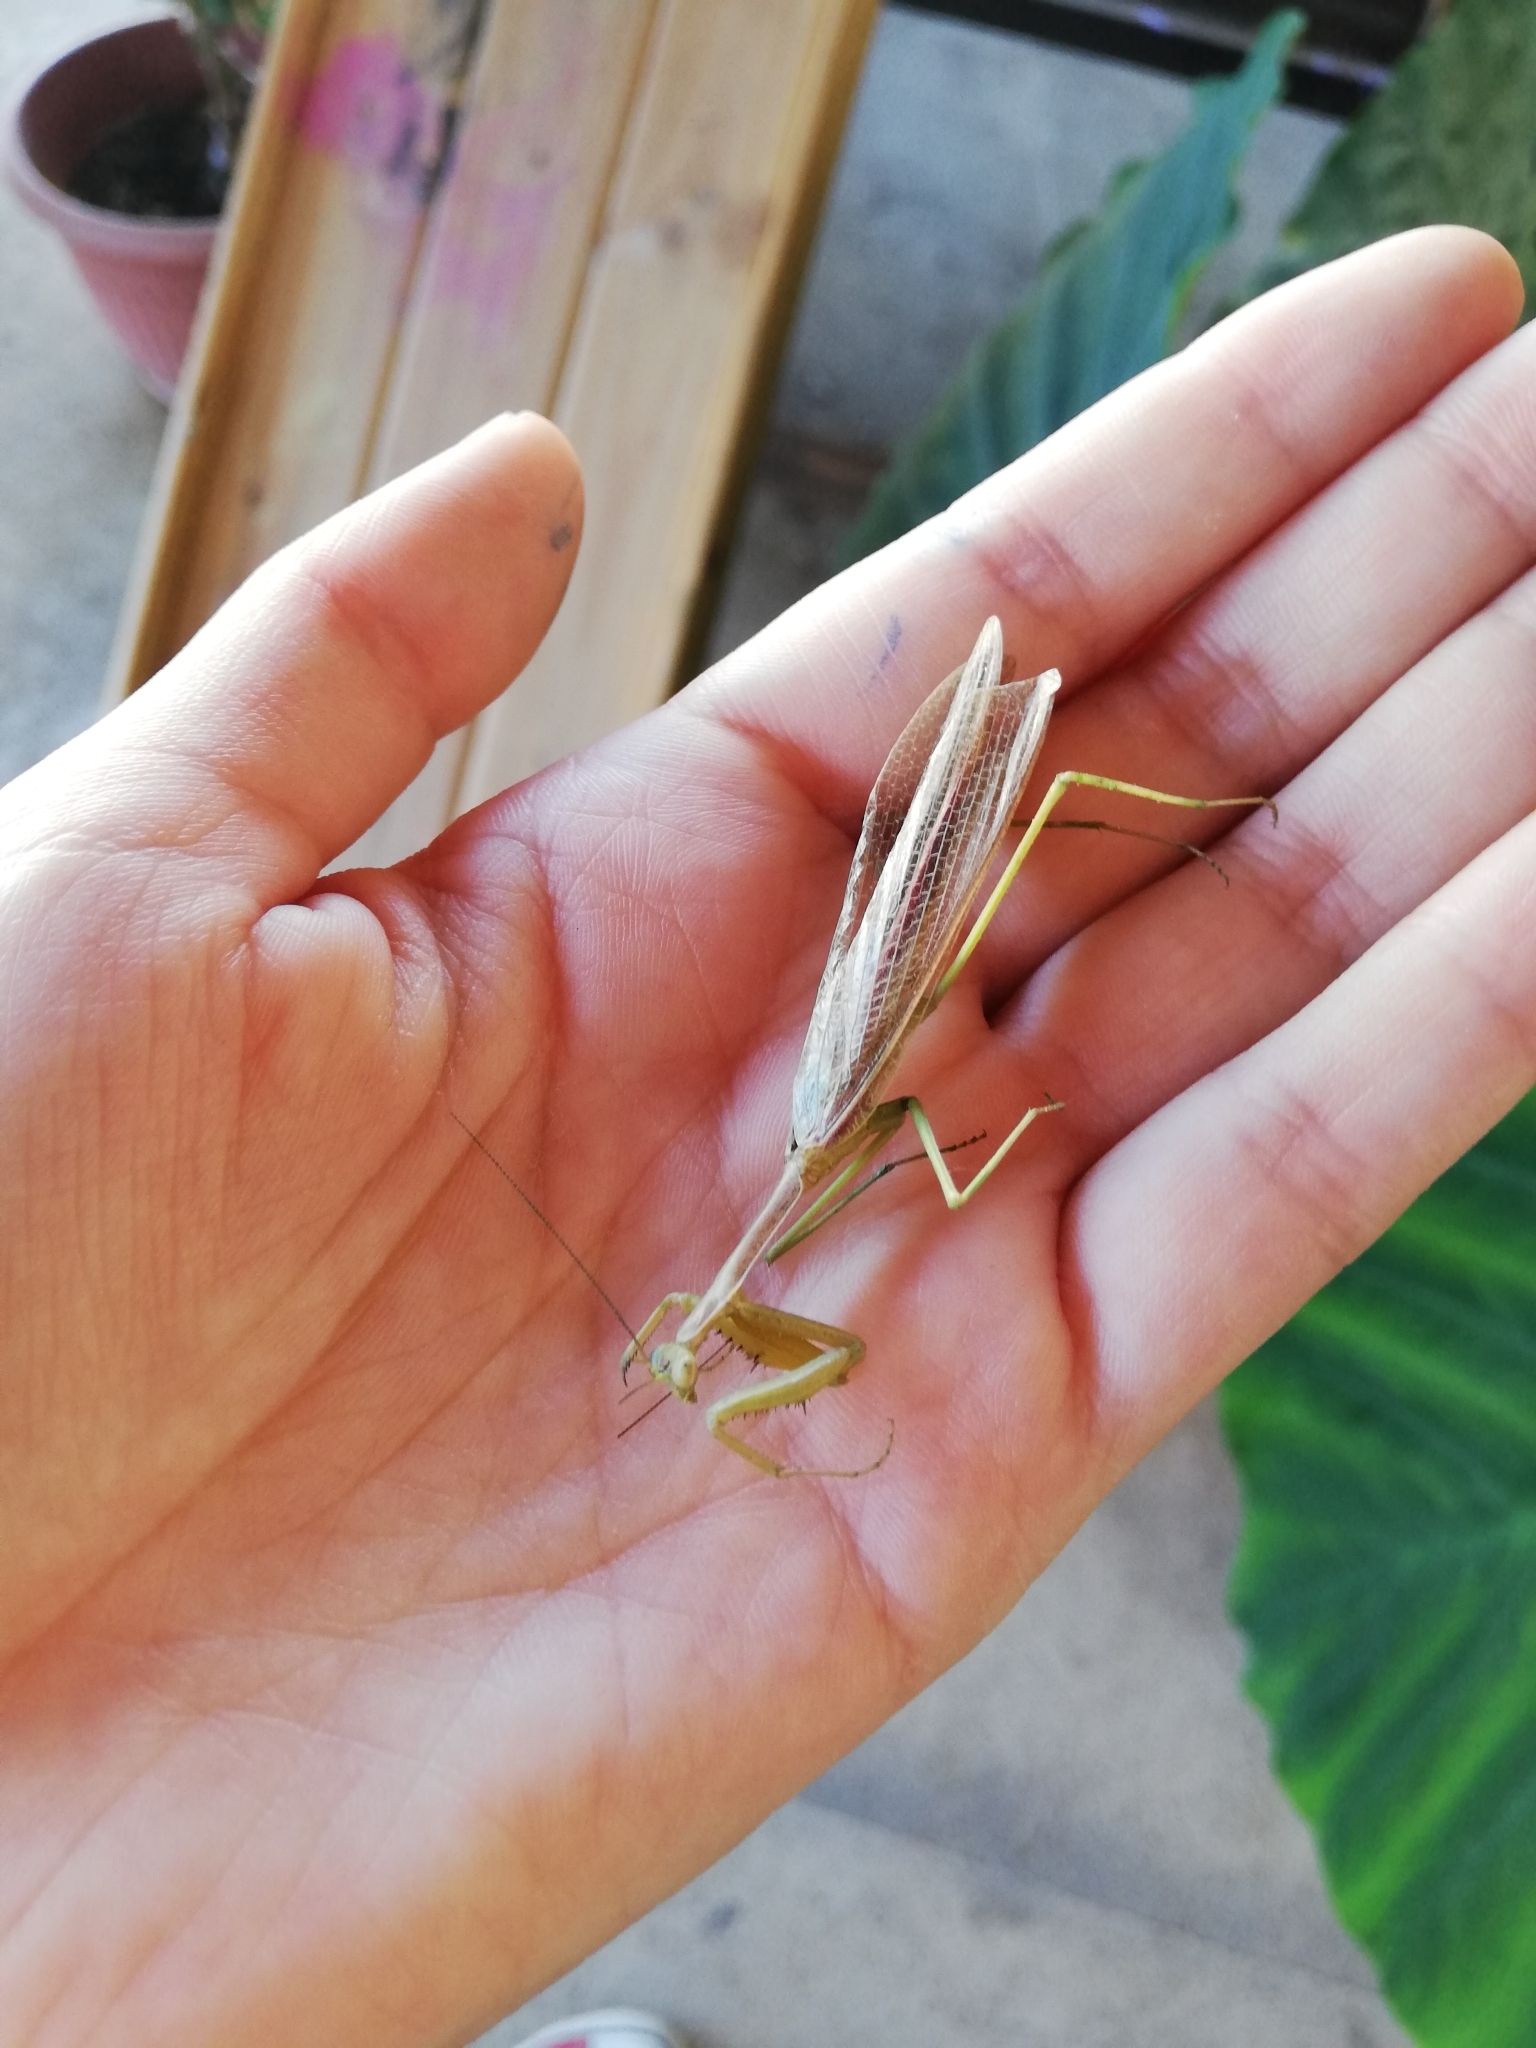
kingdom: Animalia
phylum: Arthropoda
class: Insecta
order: Mantodea
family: Coptopterygidae
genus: Coptopteryx
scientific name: Coptopteryx gayi
